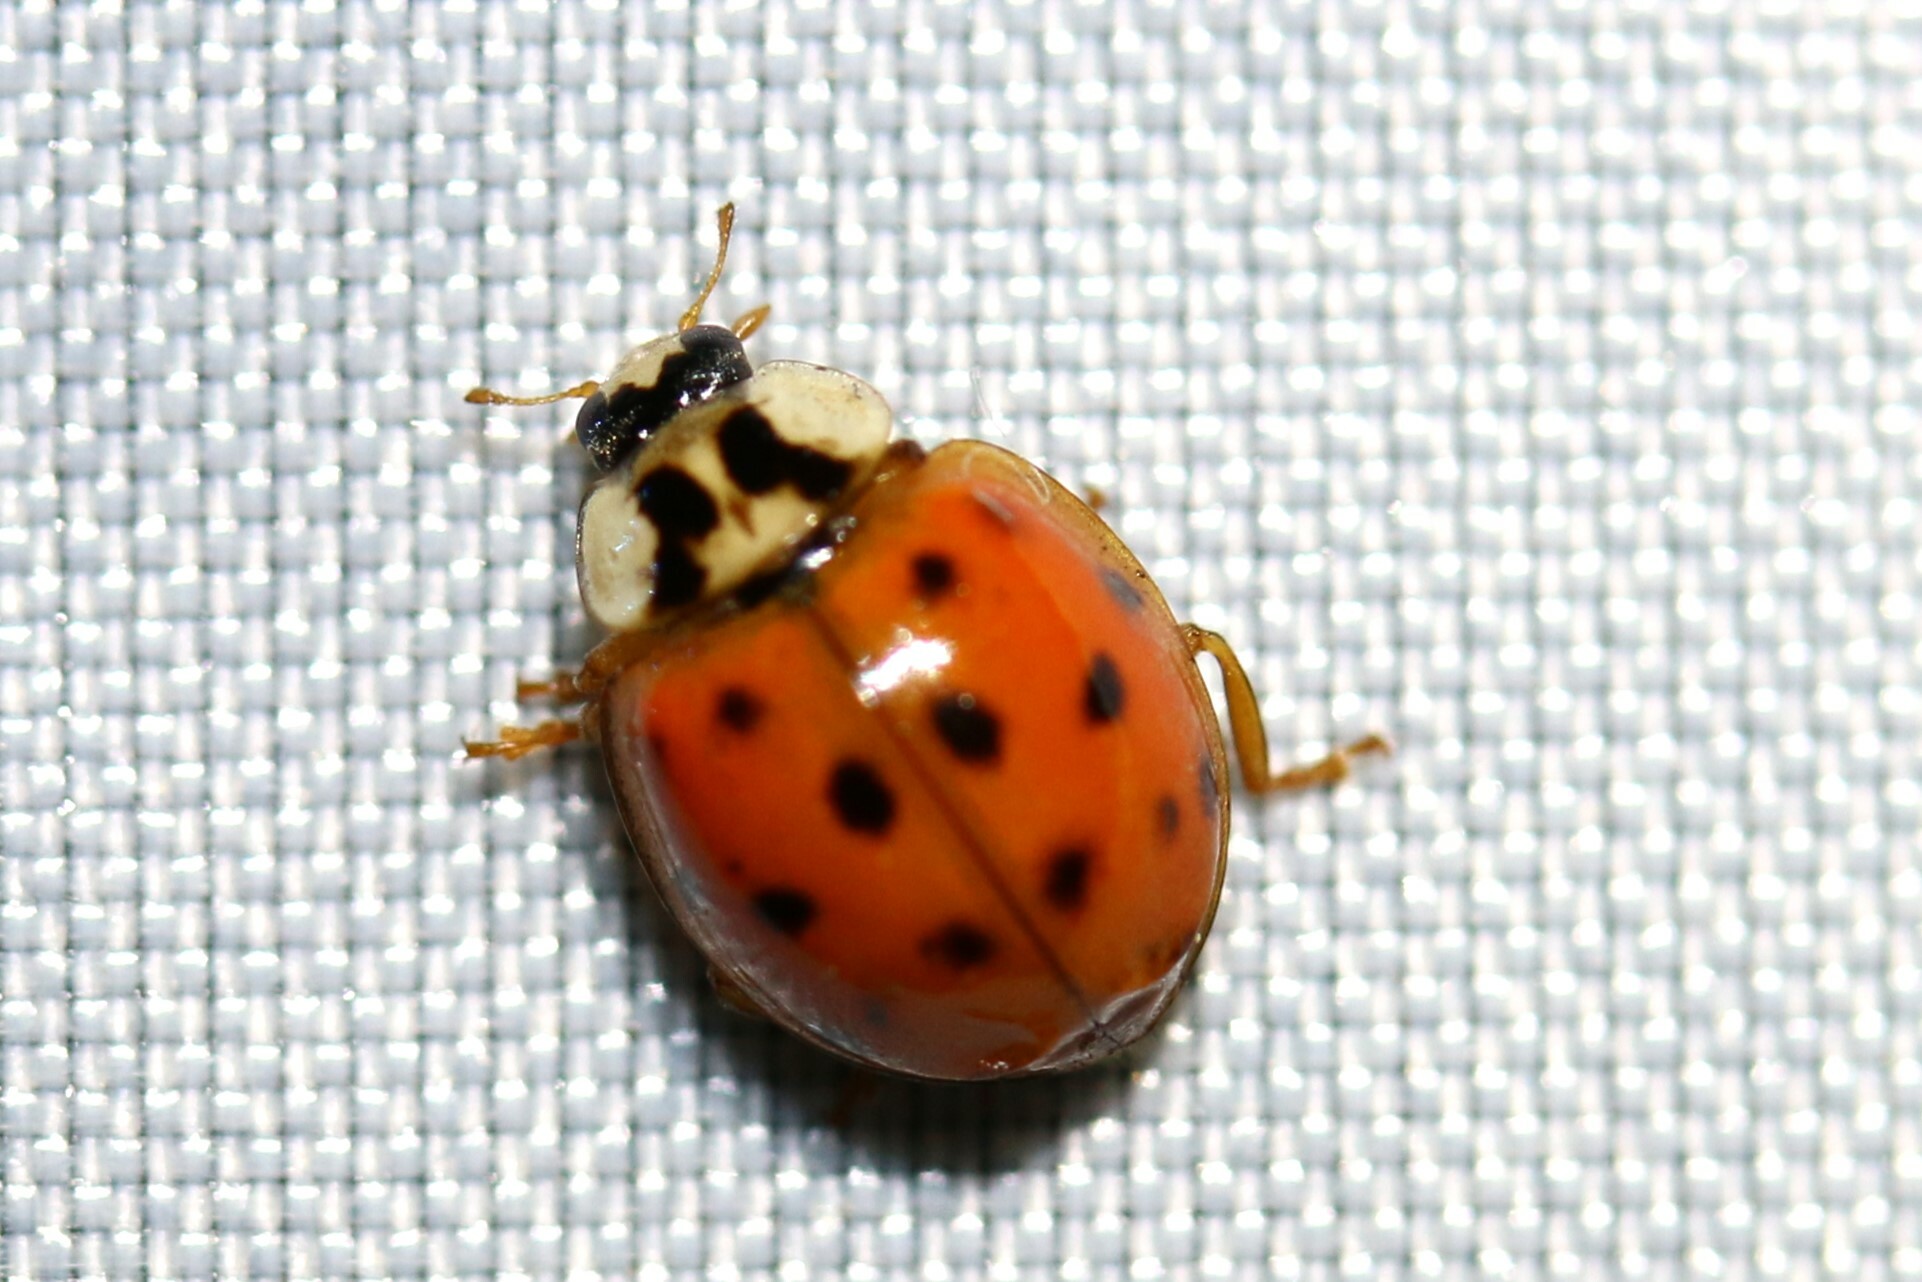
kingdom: Animalia
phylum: Arthropoda
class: Insecta
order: Coleoptera
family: Coccinellidae
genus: Harmonia
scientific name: Harmonia axyridis
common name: Harlequin ladybird
